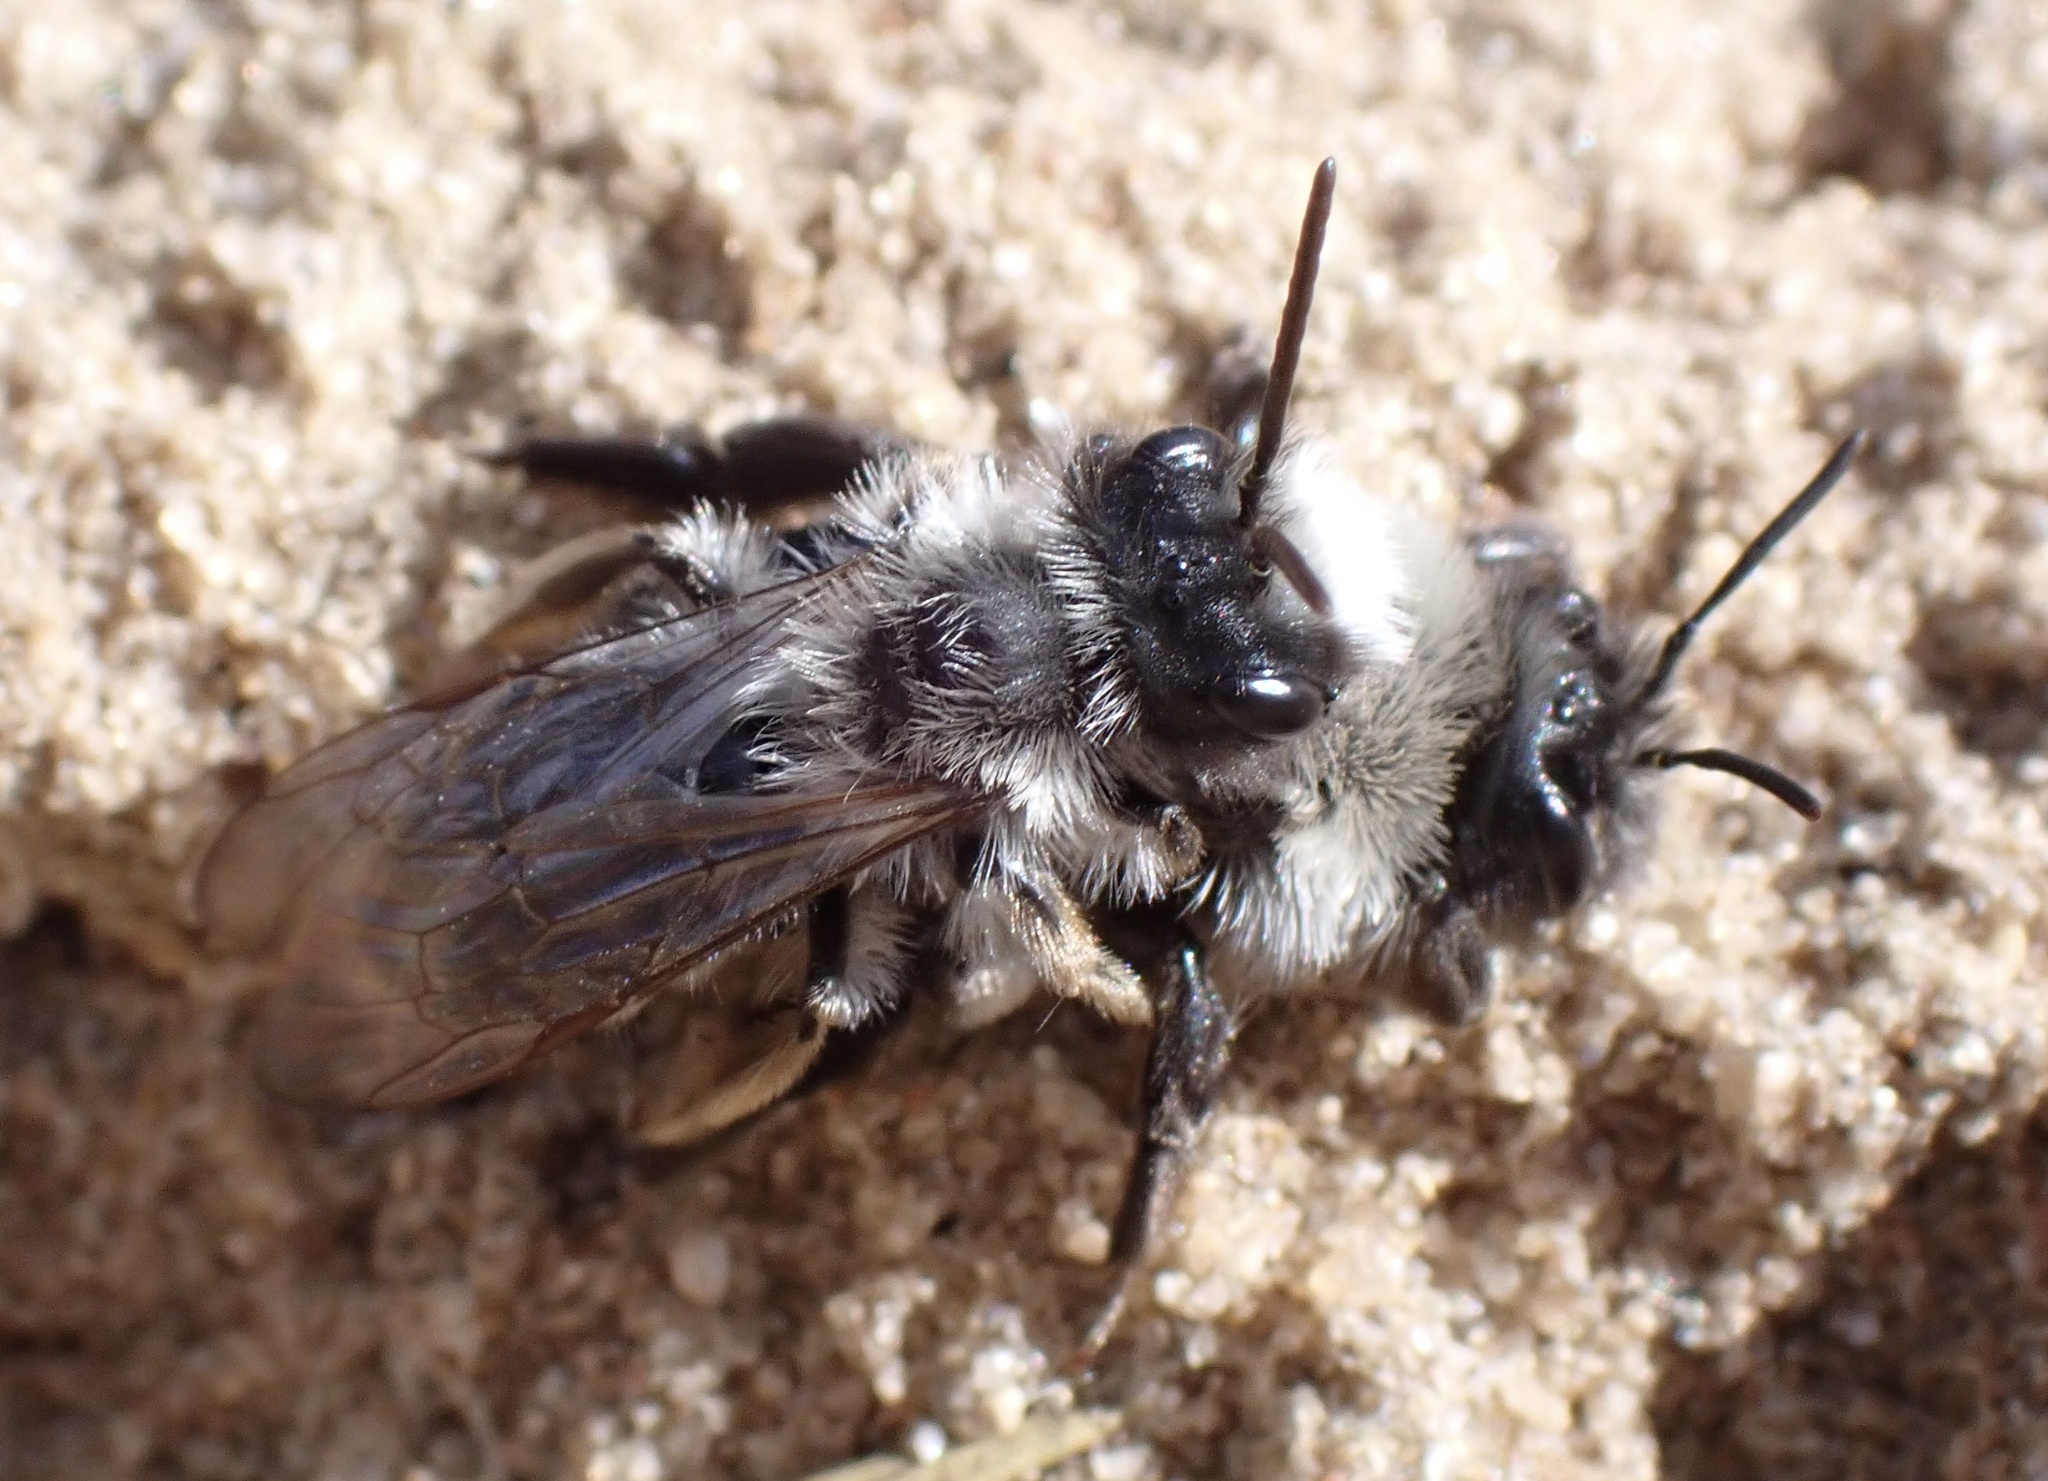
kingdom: Animalia
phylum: Arthropoda
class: Insecta
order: Hymenoptera
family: Andrenidae
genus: Andrena
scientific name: Andrena vaga
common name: Grey-backed mining bee
